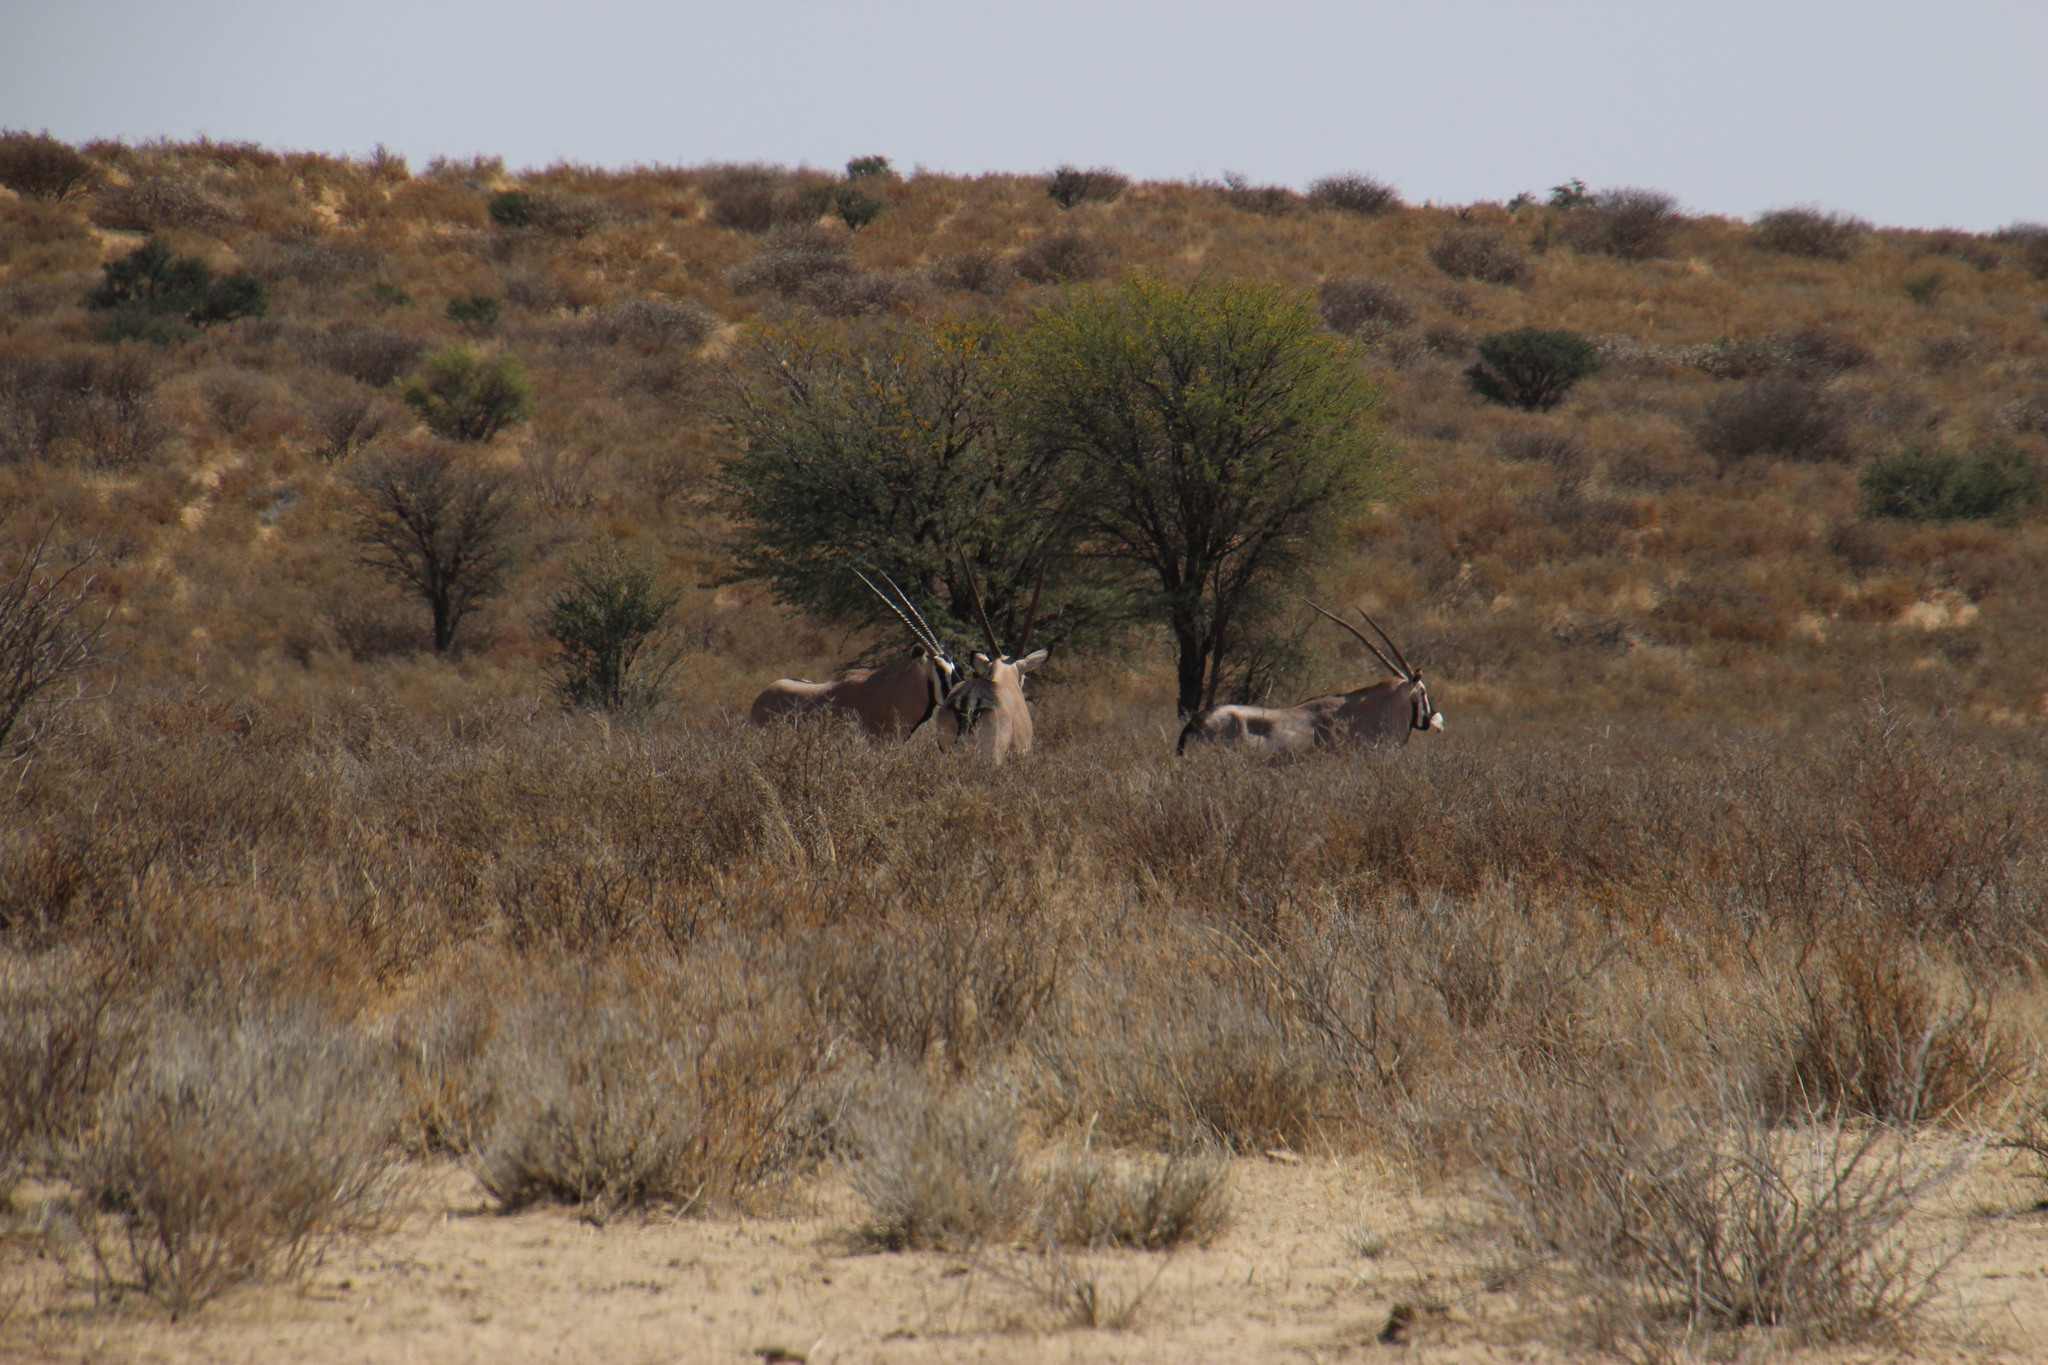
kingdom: Animalia
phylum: Chordata
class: Mammalia
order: Artiodactyla
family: Bovidae
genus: Oryx
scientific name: Oryx gazella
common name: Gemsbok
